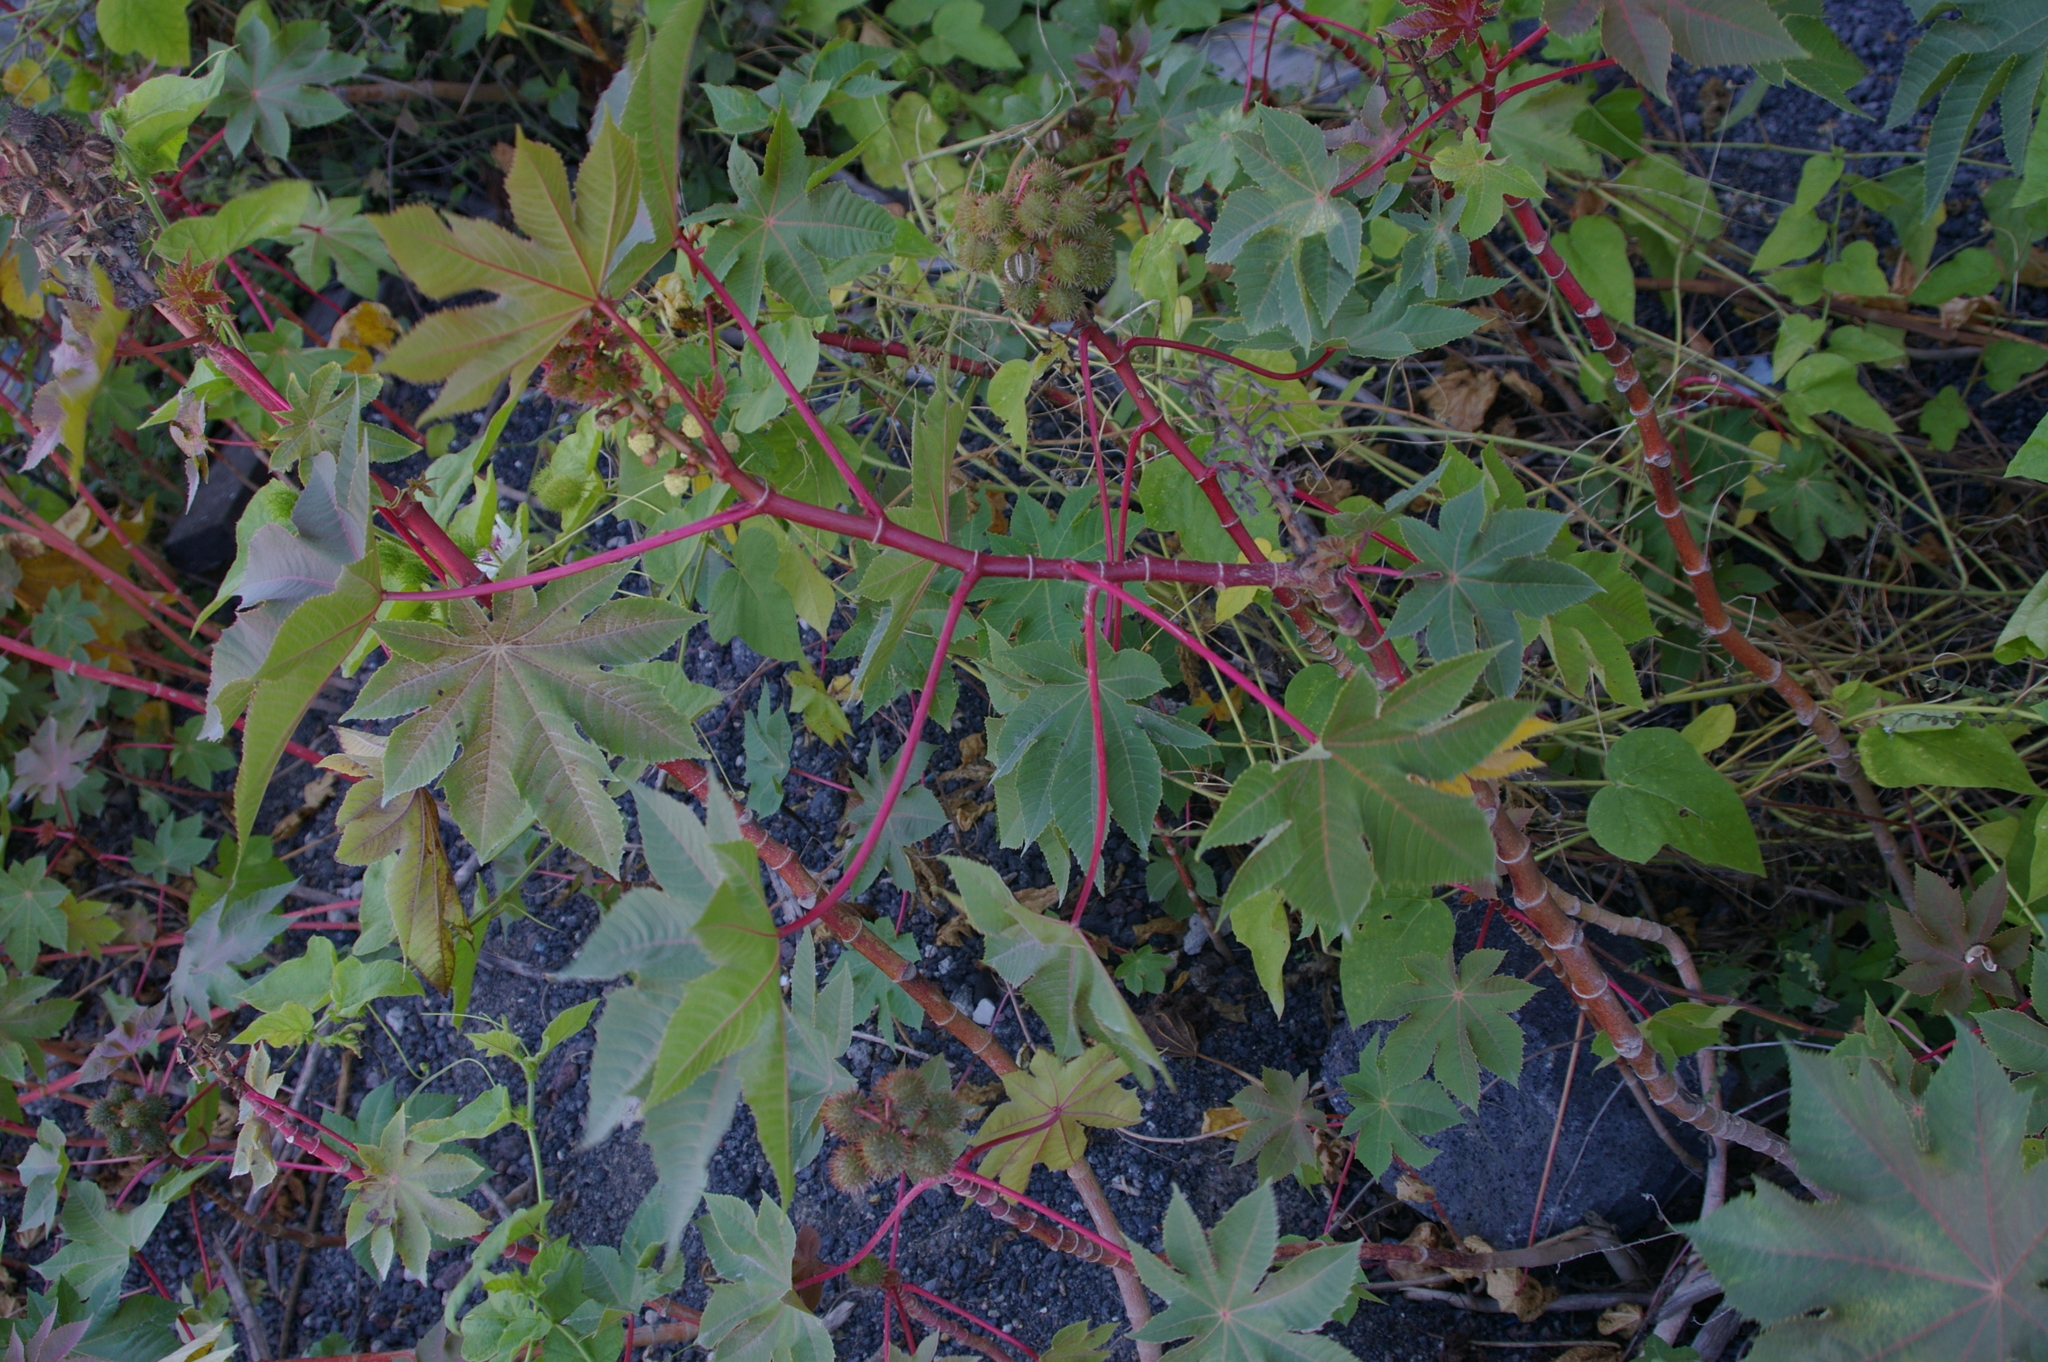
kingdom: Plantae
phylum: Tracheophyta
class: Magnoliopsida
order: Malpighiales
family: Euphorbiaceae
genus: Ricinus
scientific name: Ricinus communis
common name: Castor-oil-plant
